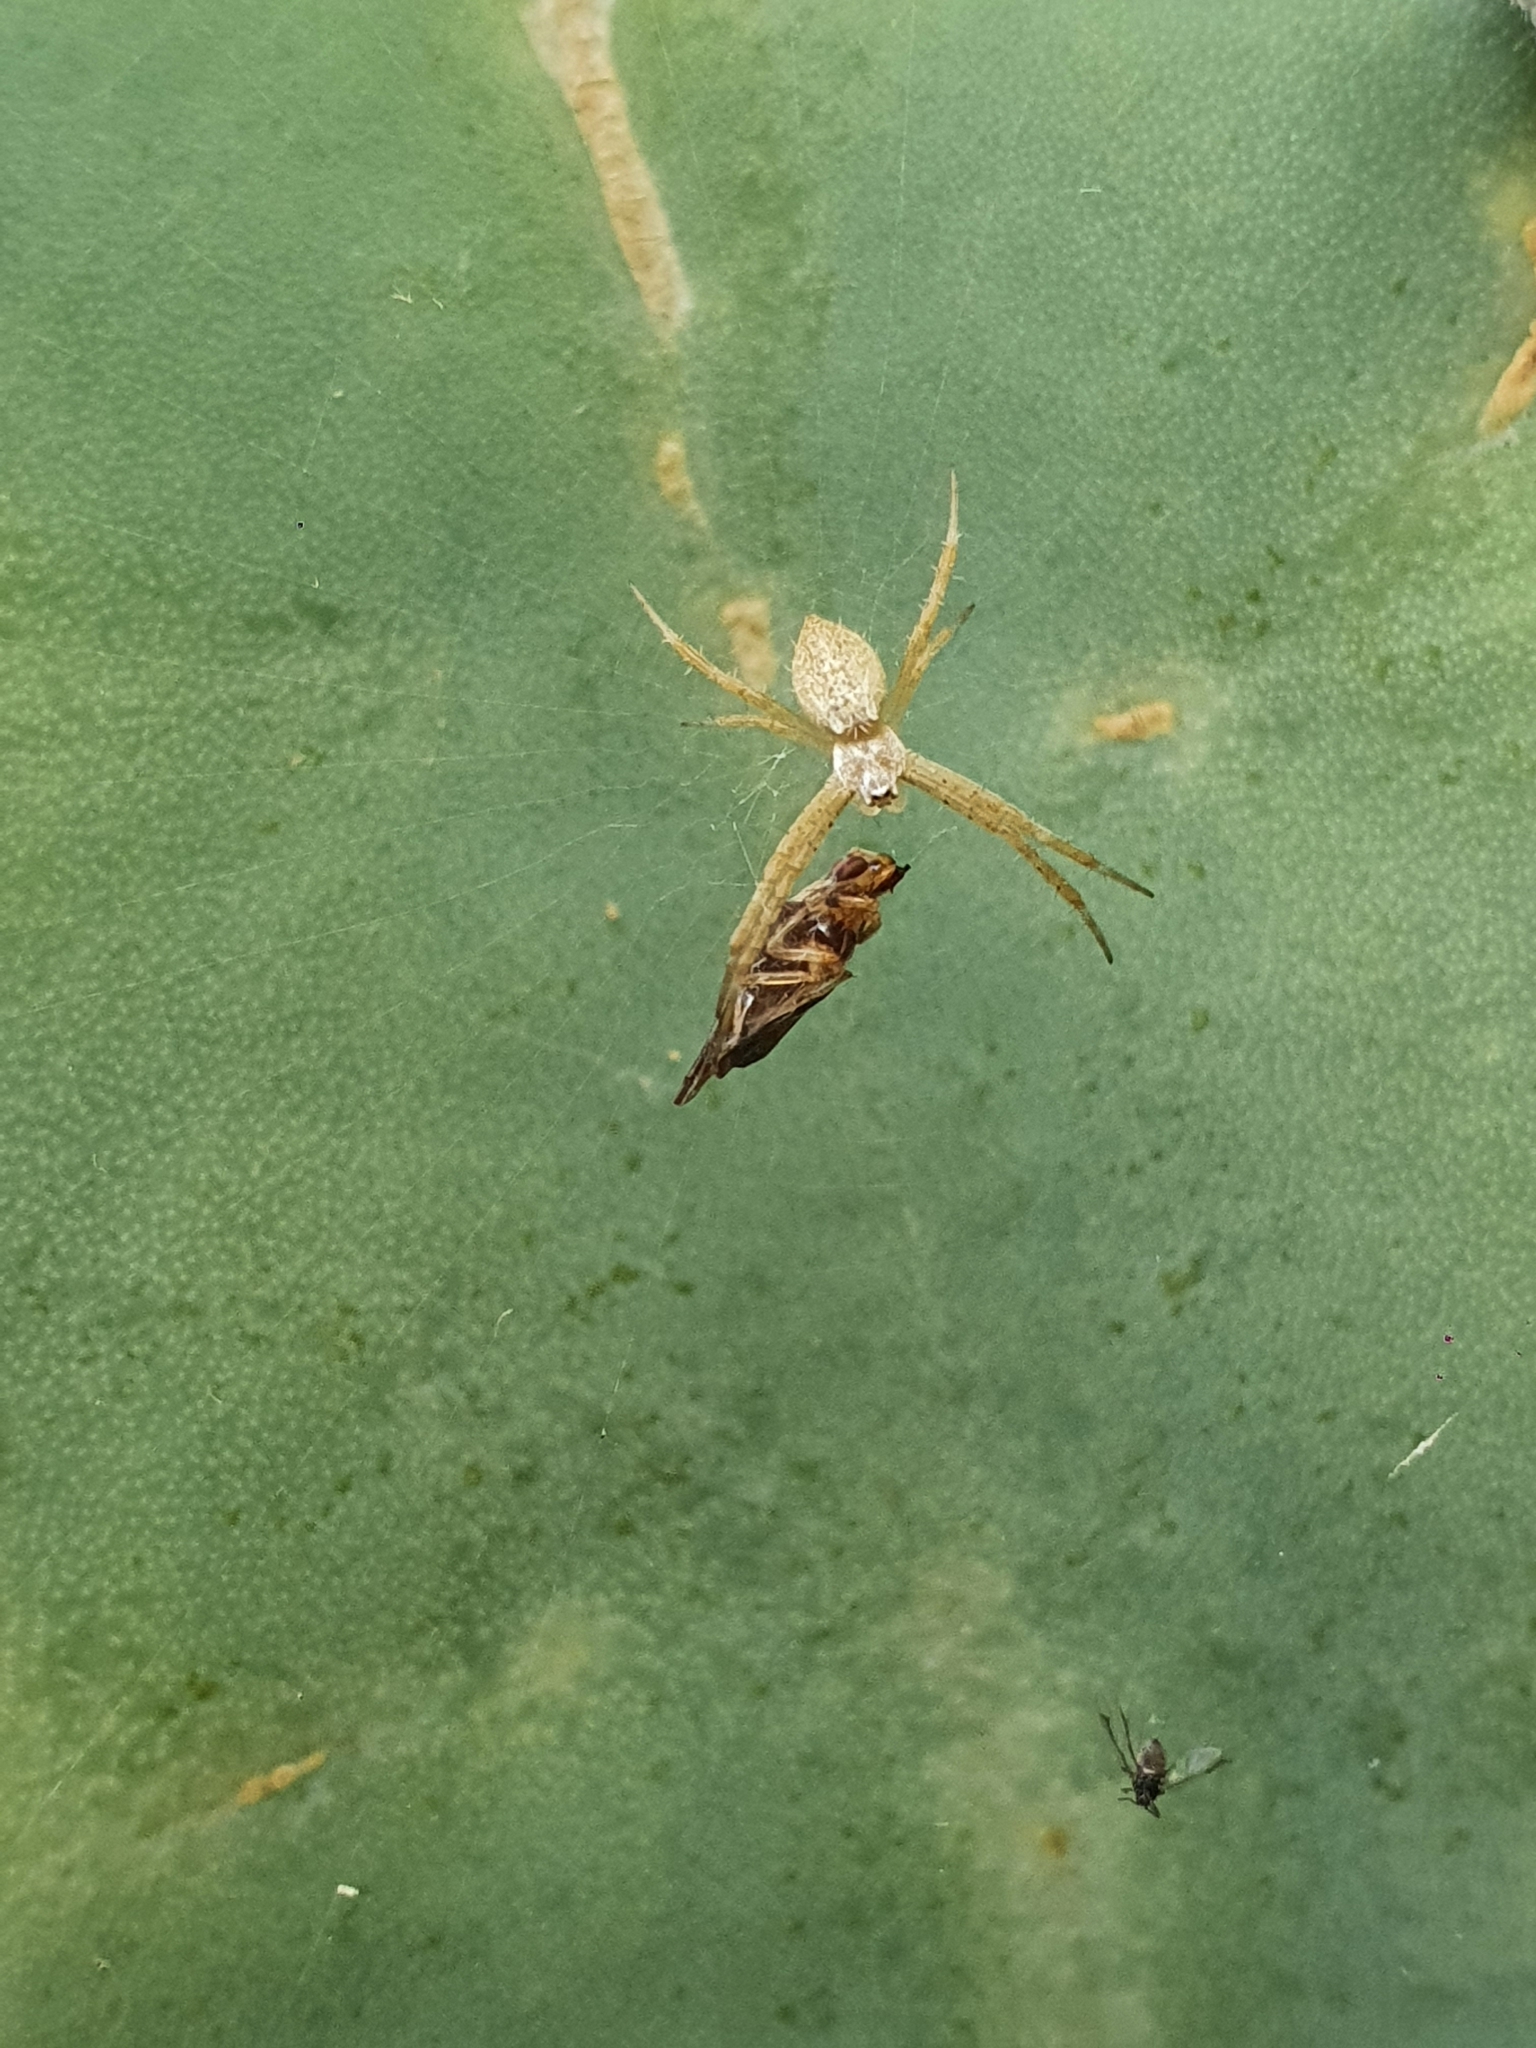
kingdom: Animalia
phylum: Arthropoda
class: Arachnida
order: Araneae
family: Araneidae
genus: Argiope
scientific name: Argiope argentata
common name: Orb weavers
